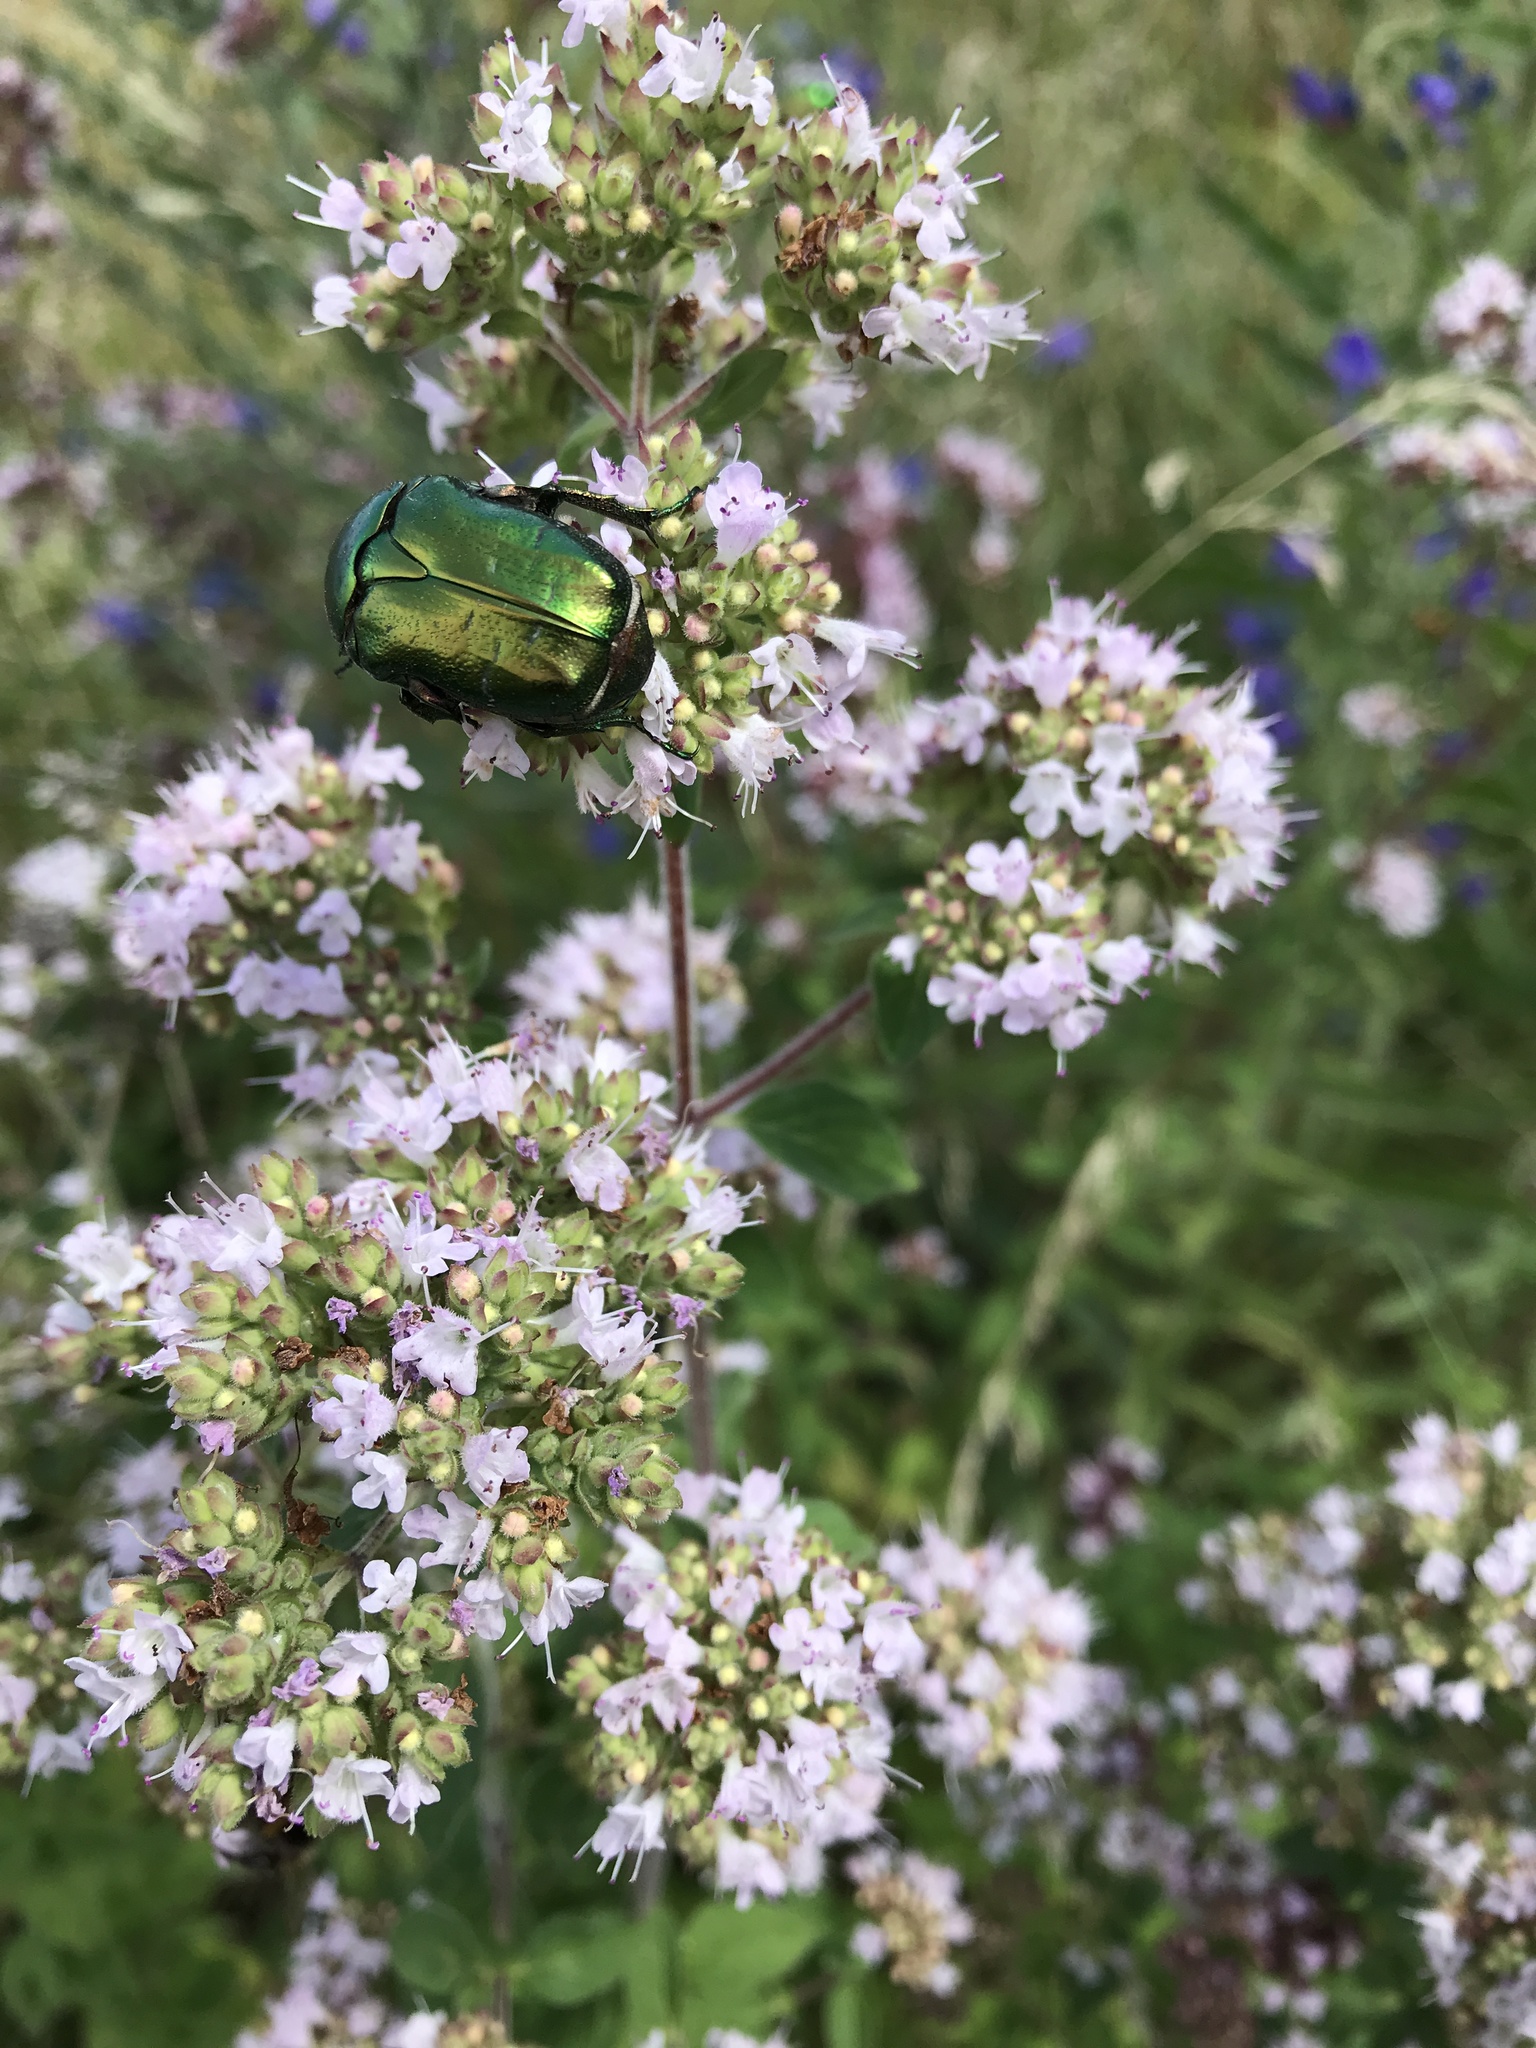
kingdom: Animalia
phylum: Arthropoda
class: Insecta
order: Coleoptera
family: Scarabaeidae
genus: Cetonia
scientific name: Cetonia aurata
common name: Rose chafer
